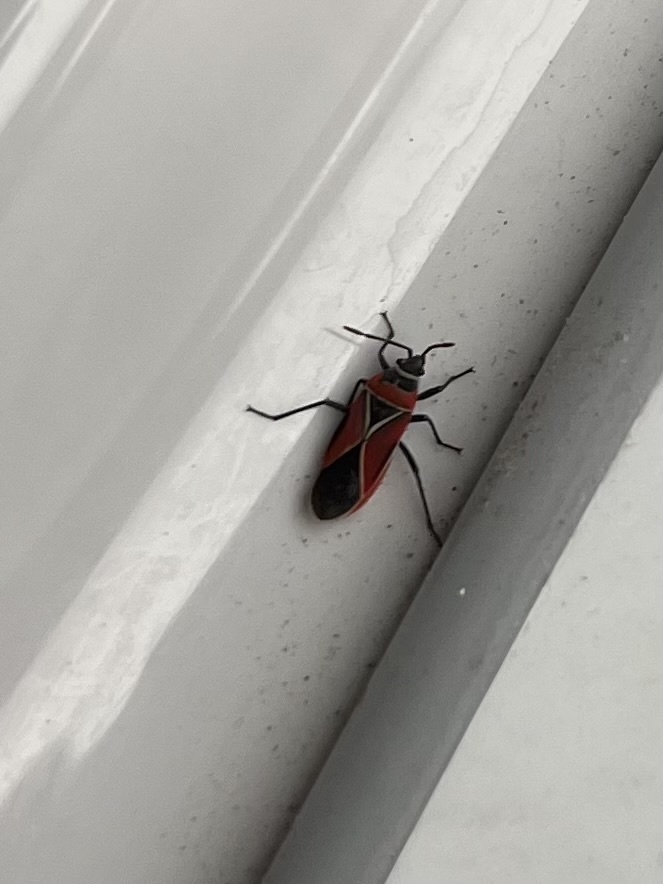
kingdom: Animalia
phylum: Arthropoda
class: Insecta
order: Hemiptera
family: Lygaeidae
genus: Neacoryphus
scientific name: Neacoryphus bicrucis
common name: Lygaeid bug
